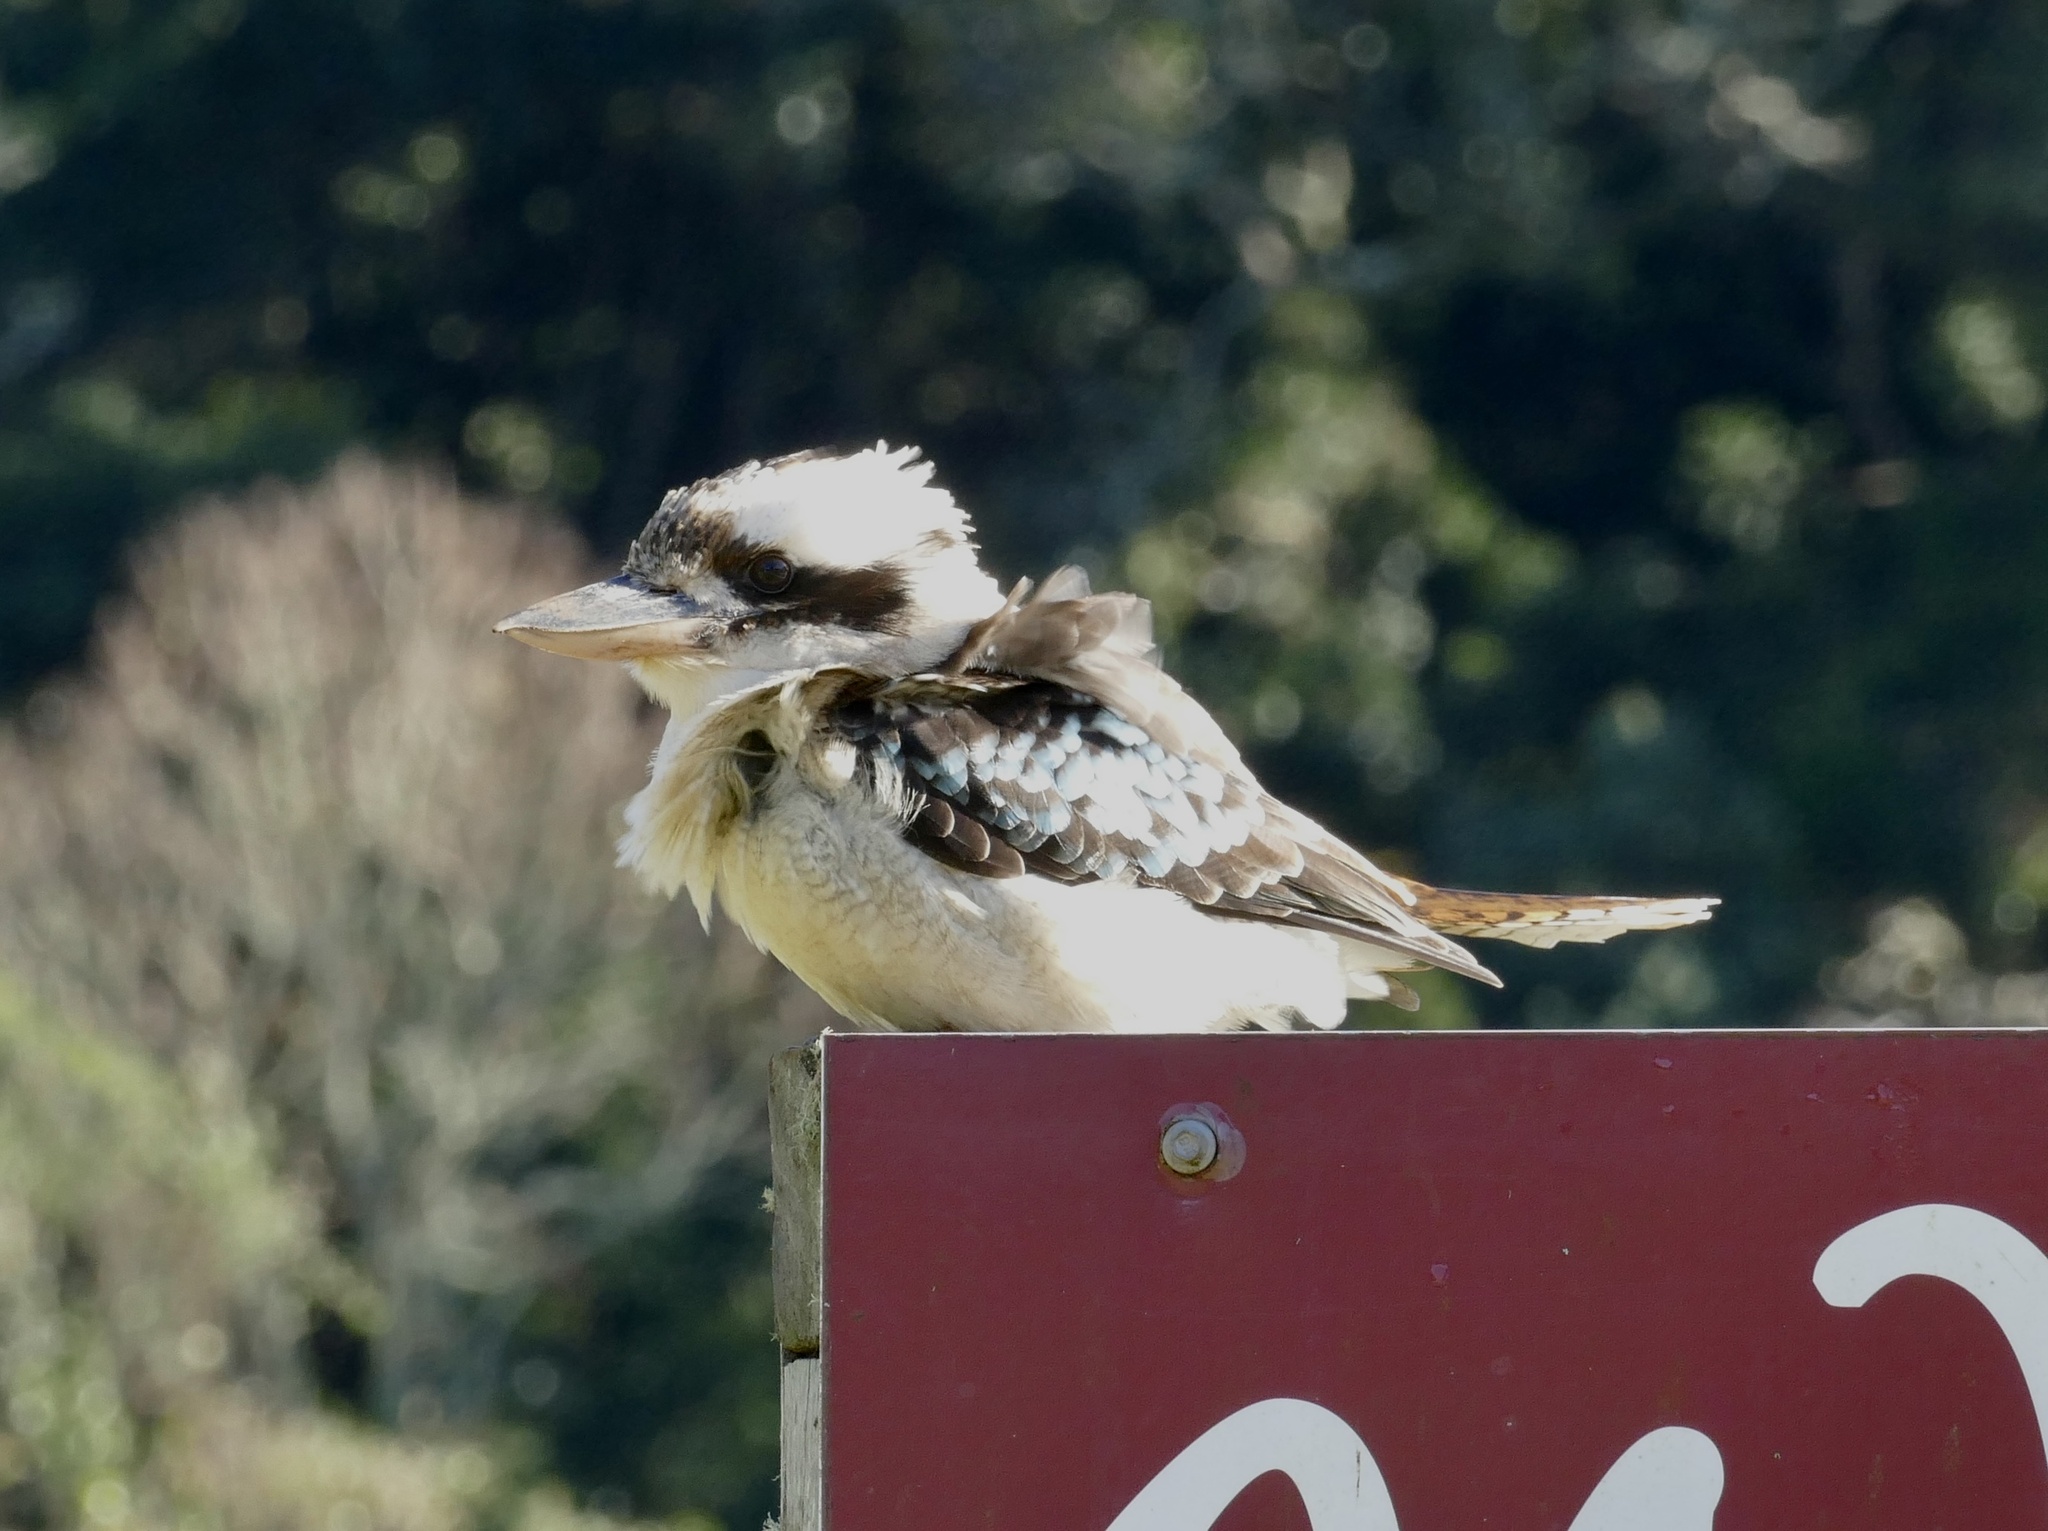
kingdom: Animalia
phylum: Chordata
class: Aves
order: Coraciiformes
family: Alcedinidae
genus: Dacelo
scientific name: Dacelo novaeguineae
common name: Laughing kookaburra
